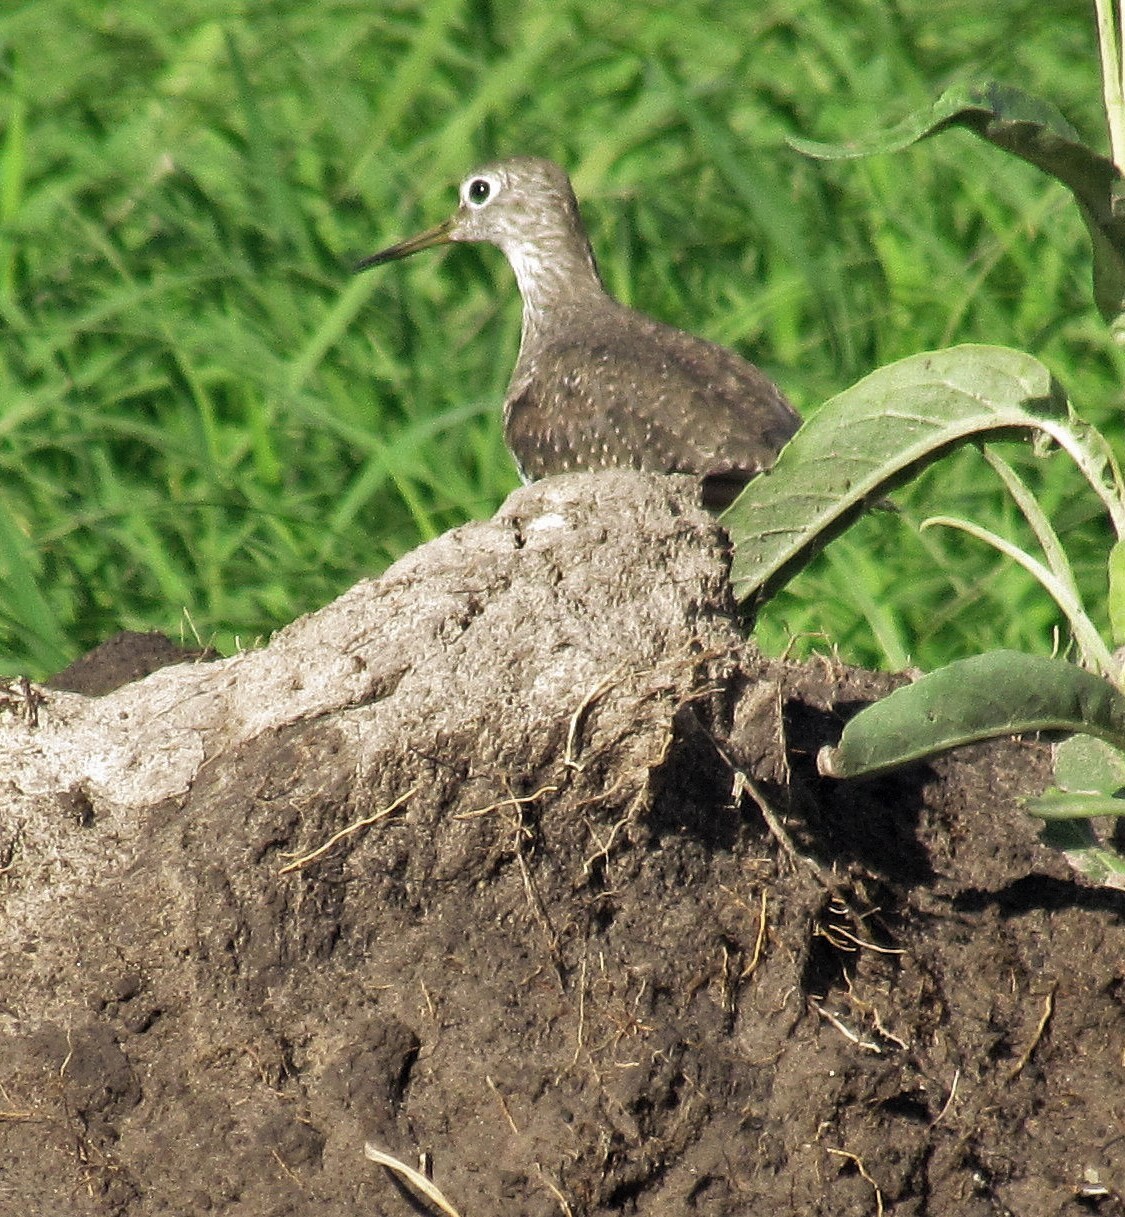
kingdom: Animalia
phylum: Chordata
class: Aves
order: Charadriiformes
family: Scolopacidae
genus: Tringa
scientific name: Tringa solitaria
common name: Solitary sandpiper
